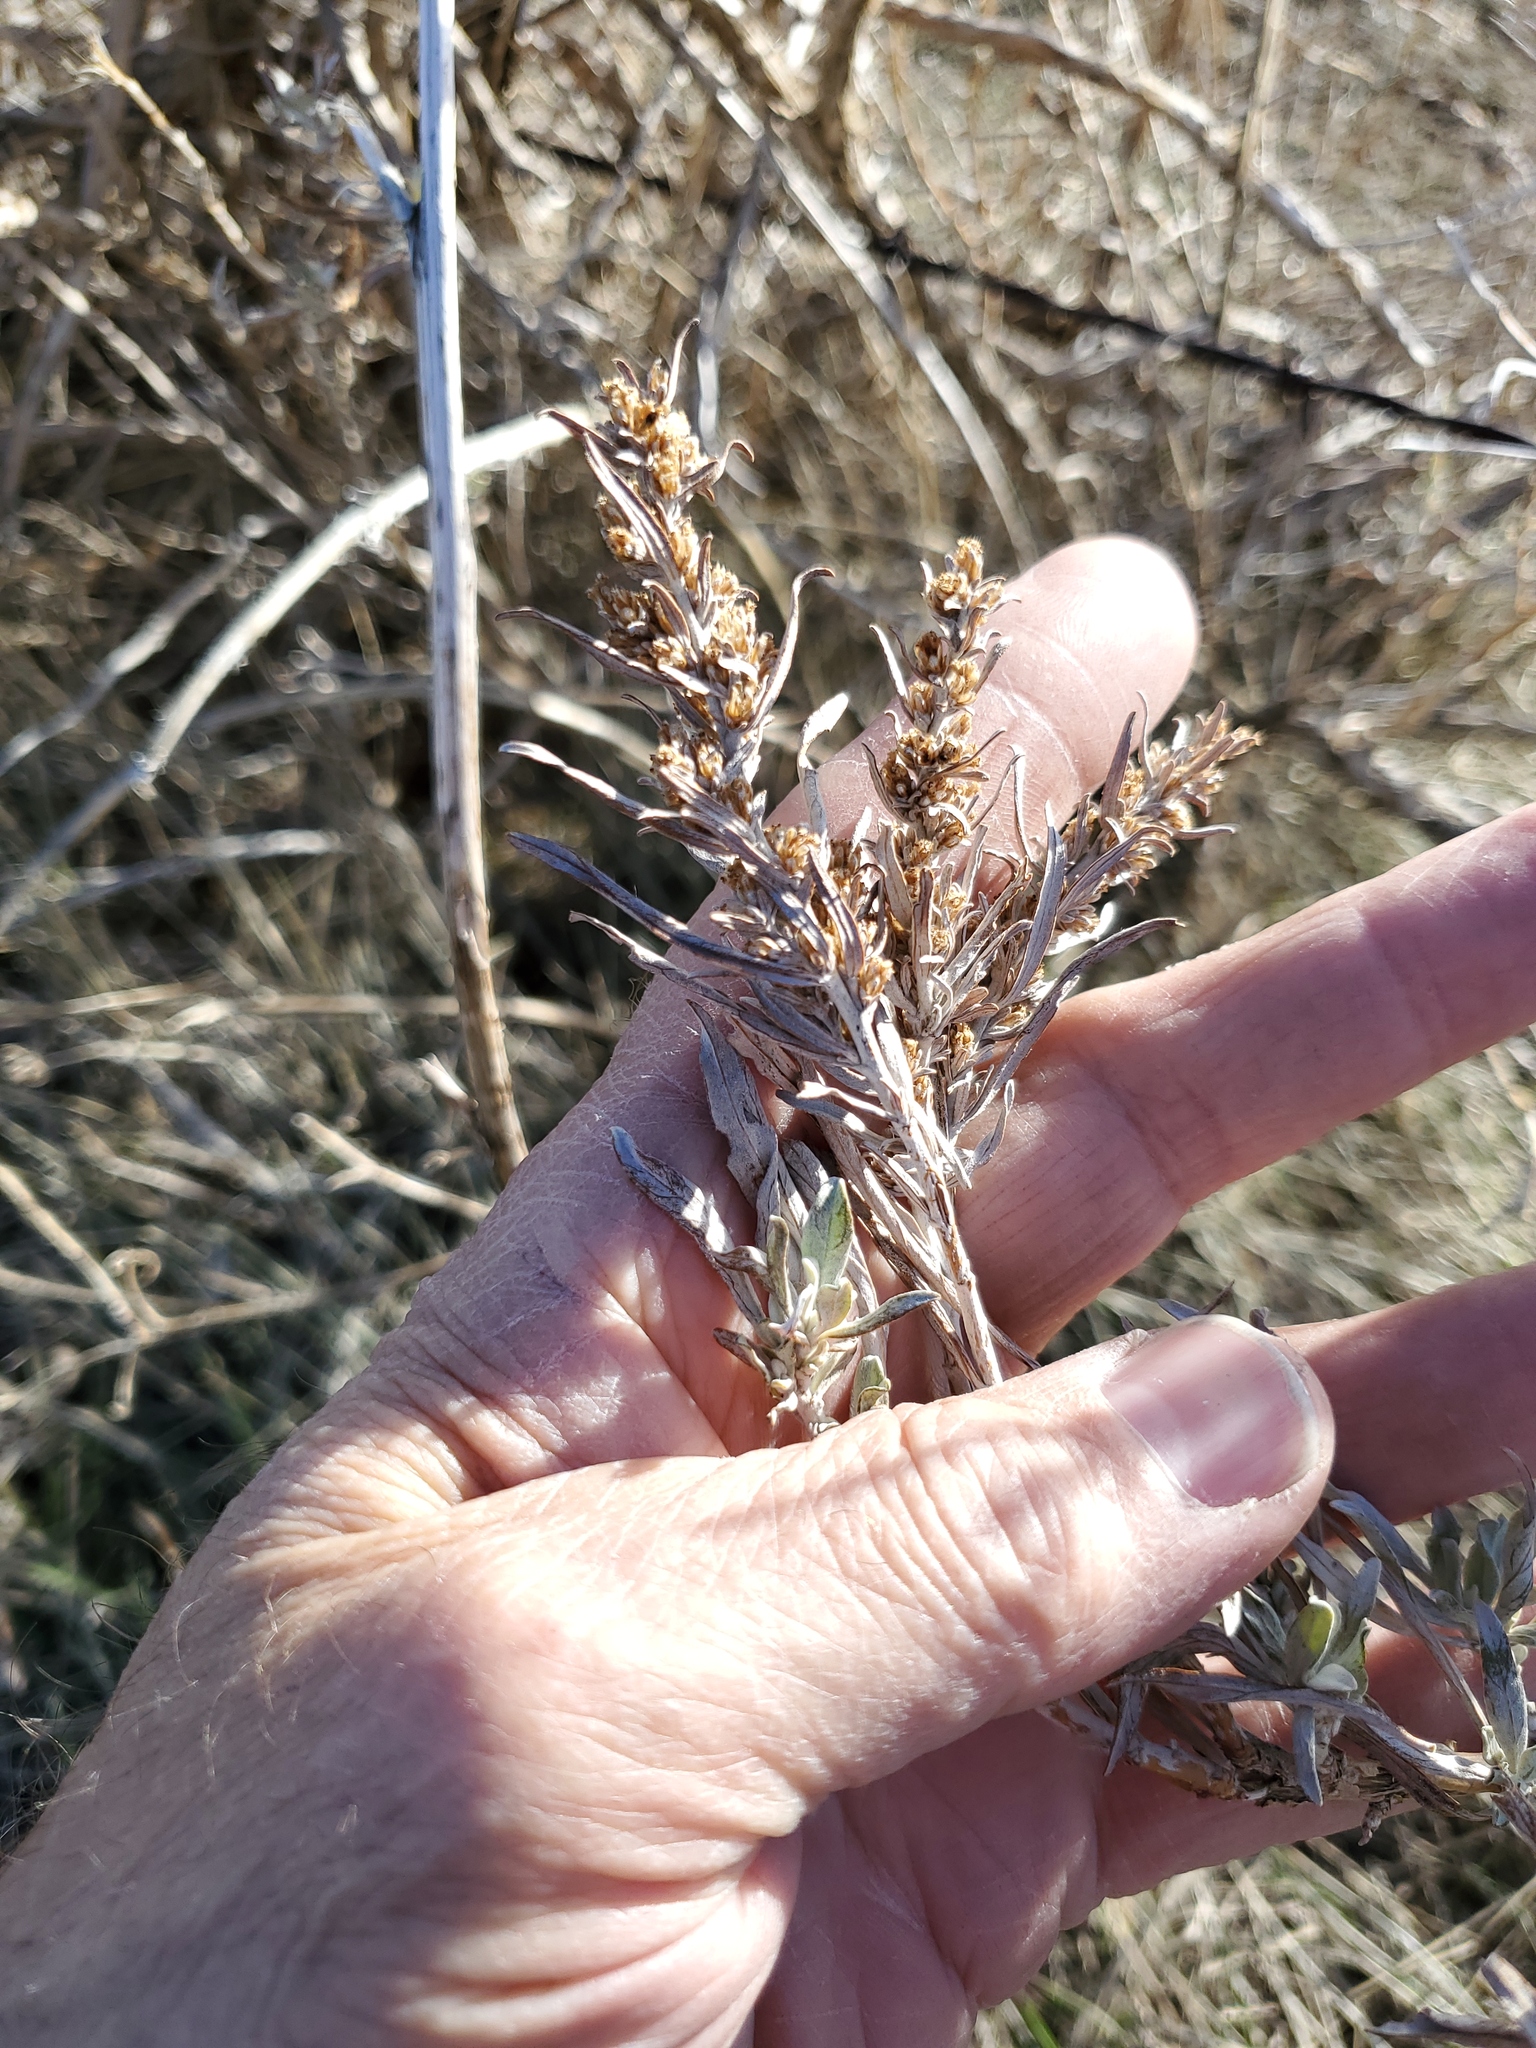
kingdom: Plantae
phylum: Tracheophyta
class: Magnoliopsida
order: Asterales
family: Asteraceae
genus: Artemisia
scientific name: Artemisia cana
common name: Silver sagebrush
